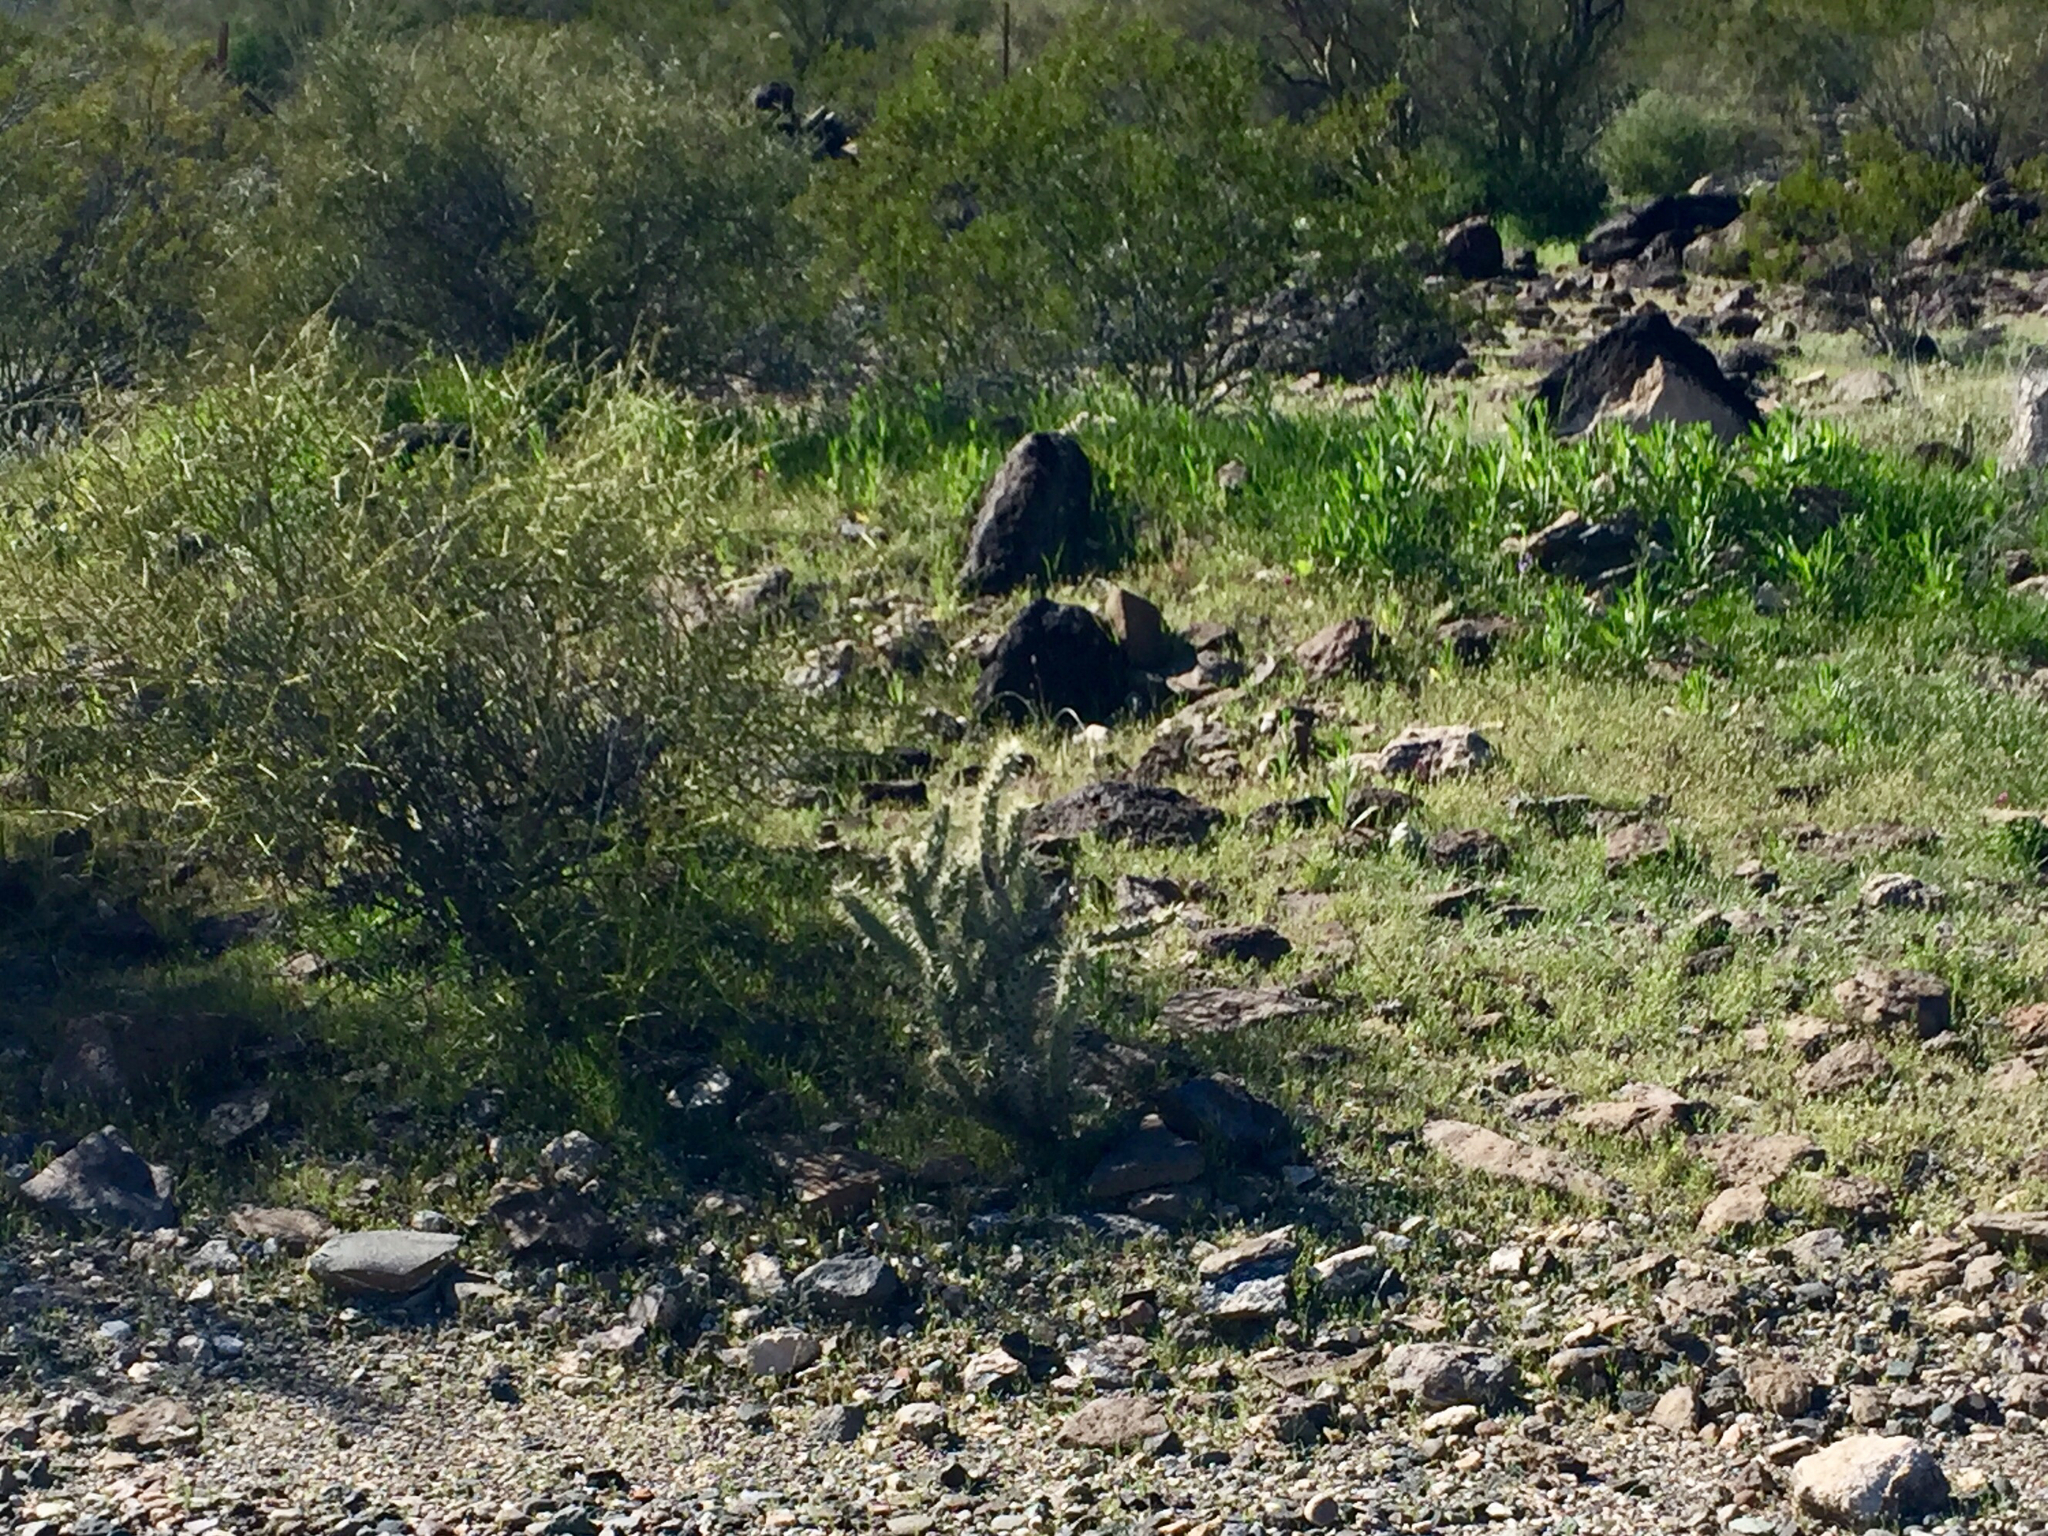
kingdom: Plantae
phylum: Tracheophyta
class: Magnoliopsida
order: Caryophyllales
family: Cactaceae
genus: Cylindropuntia
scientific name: Cylindropuntia acanthocarpa
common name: Buckhorn cholla
